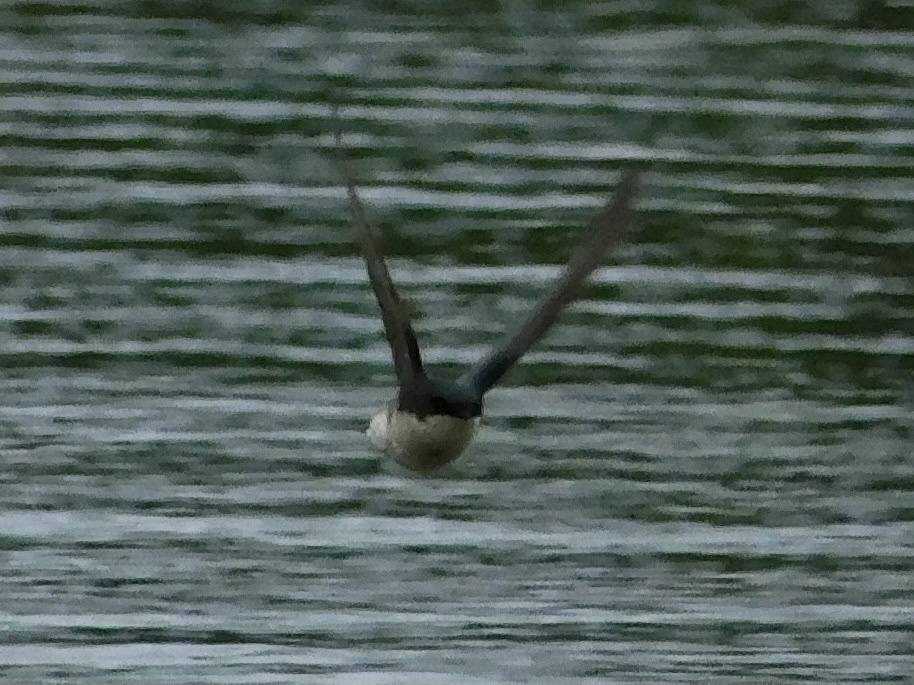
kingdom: Animalia
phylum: Chordata
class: Aves
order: Passeriformes
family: Hirundinidae
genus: Tachycineta
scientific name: Tachycineta bicolor
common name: Tree swallow
